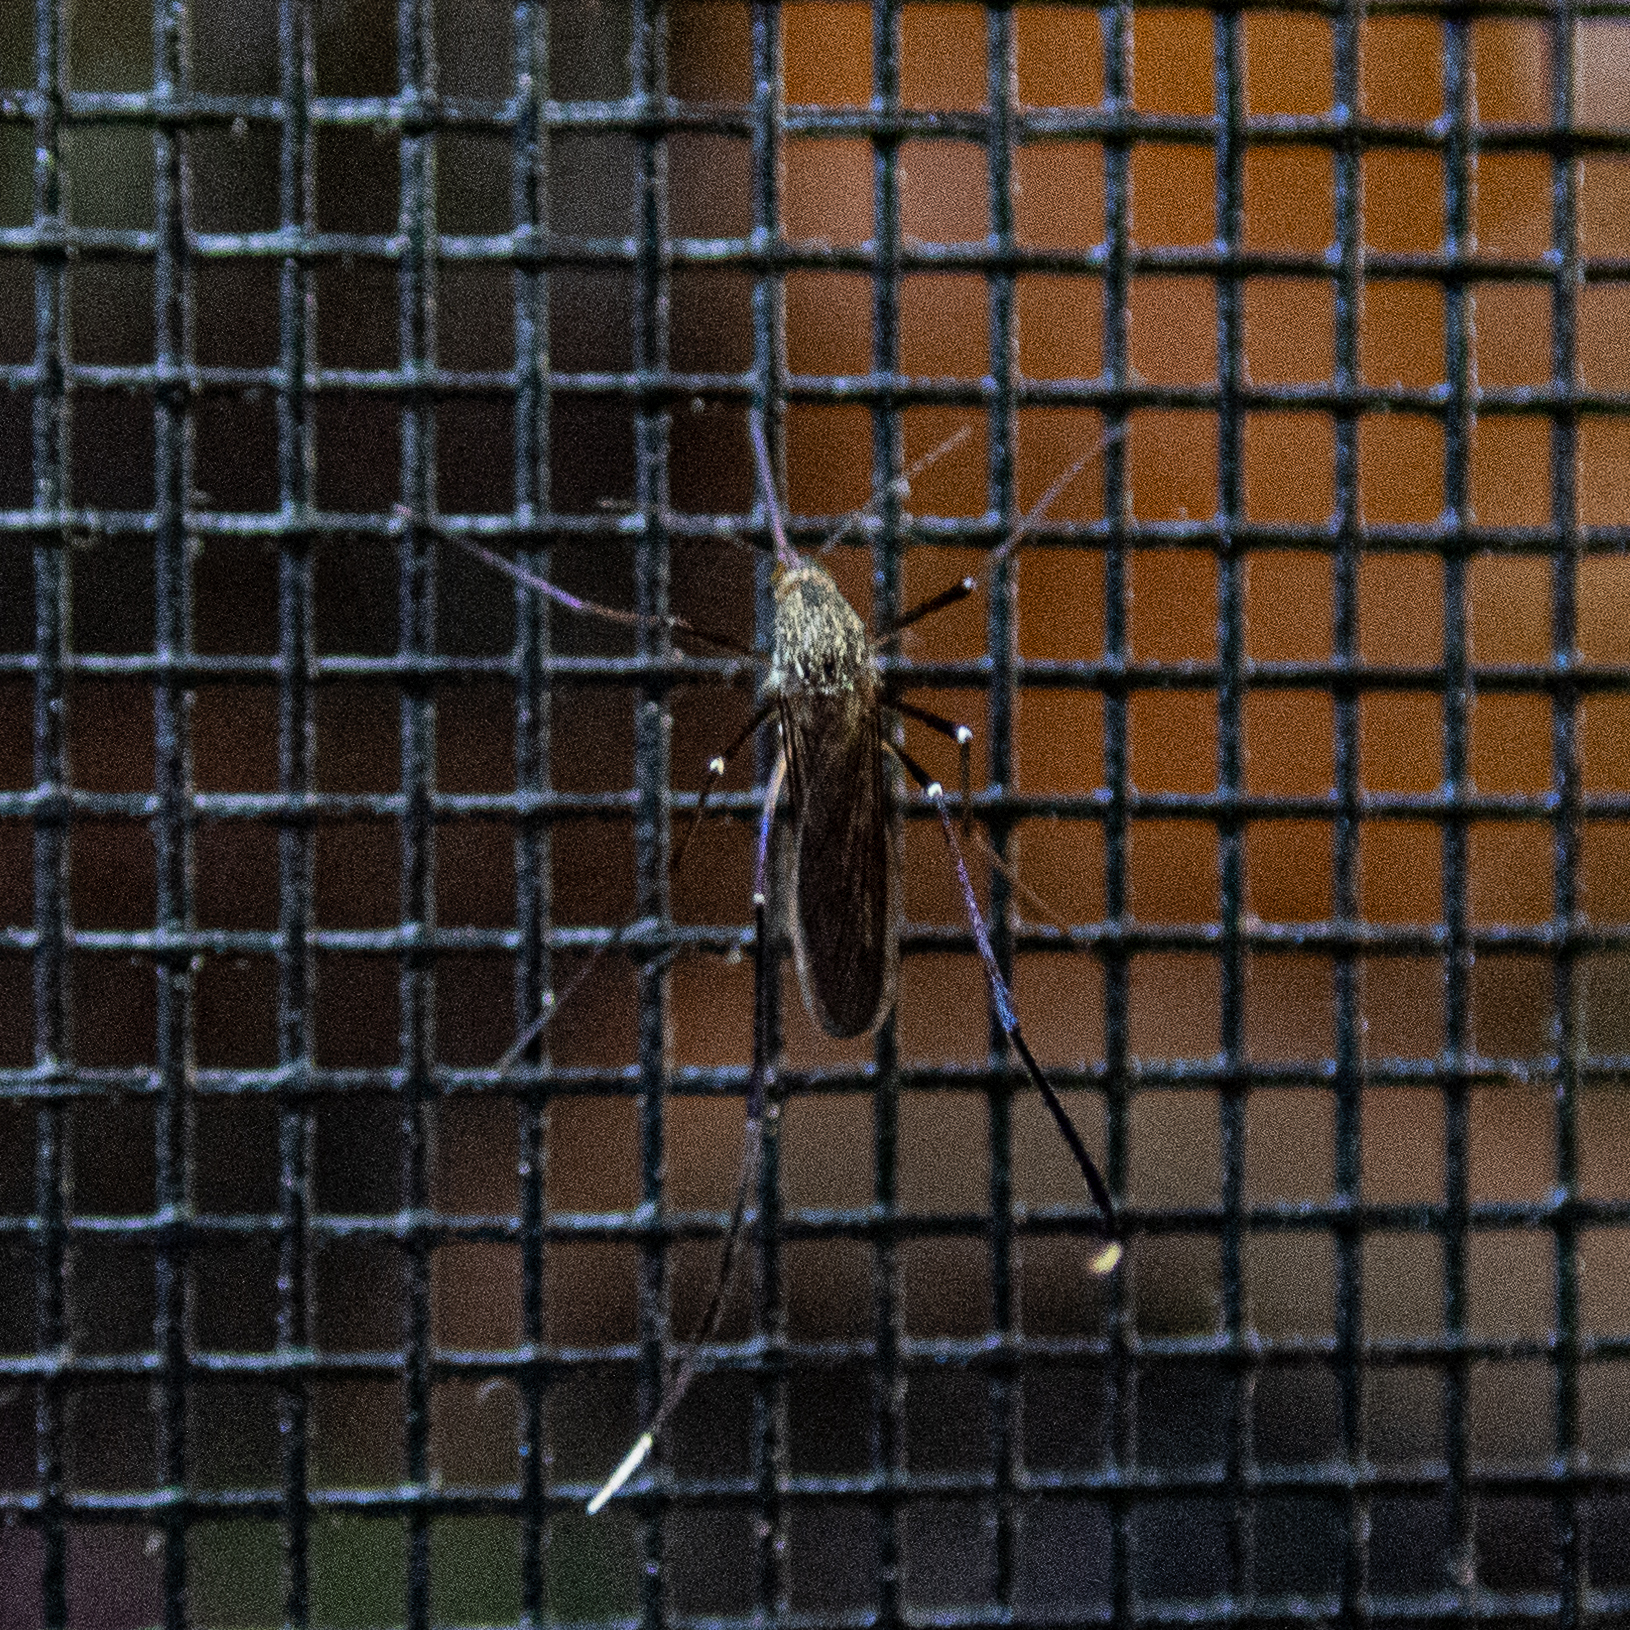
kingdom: Animalia
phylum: Arthropoda
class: Insecta
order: Diptera
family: Culicidae
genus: Psorophora
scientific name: Psorophora ferox
